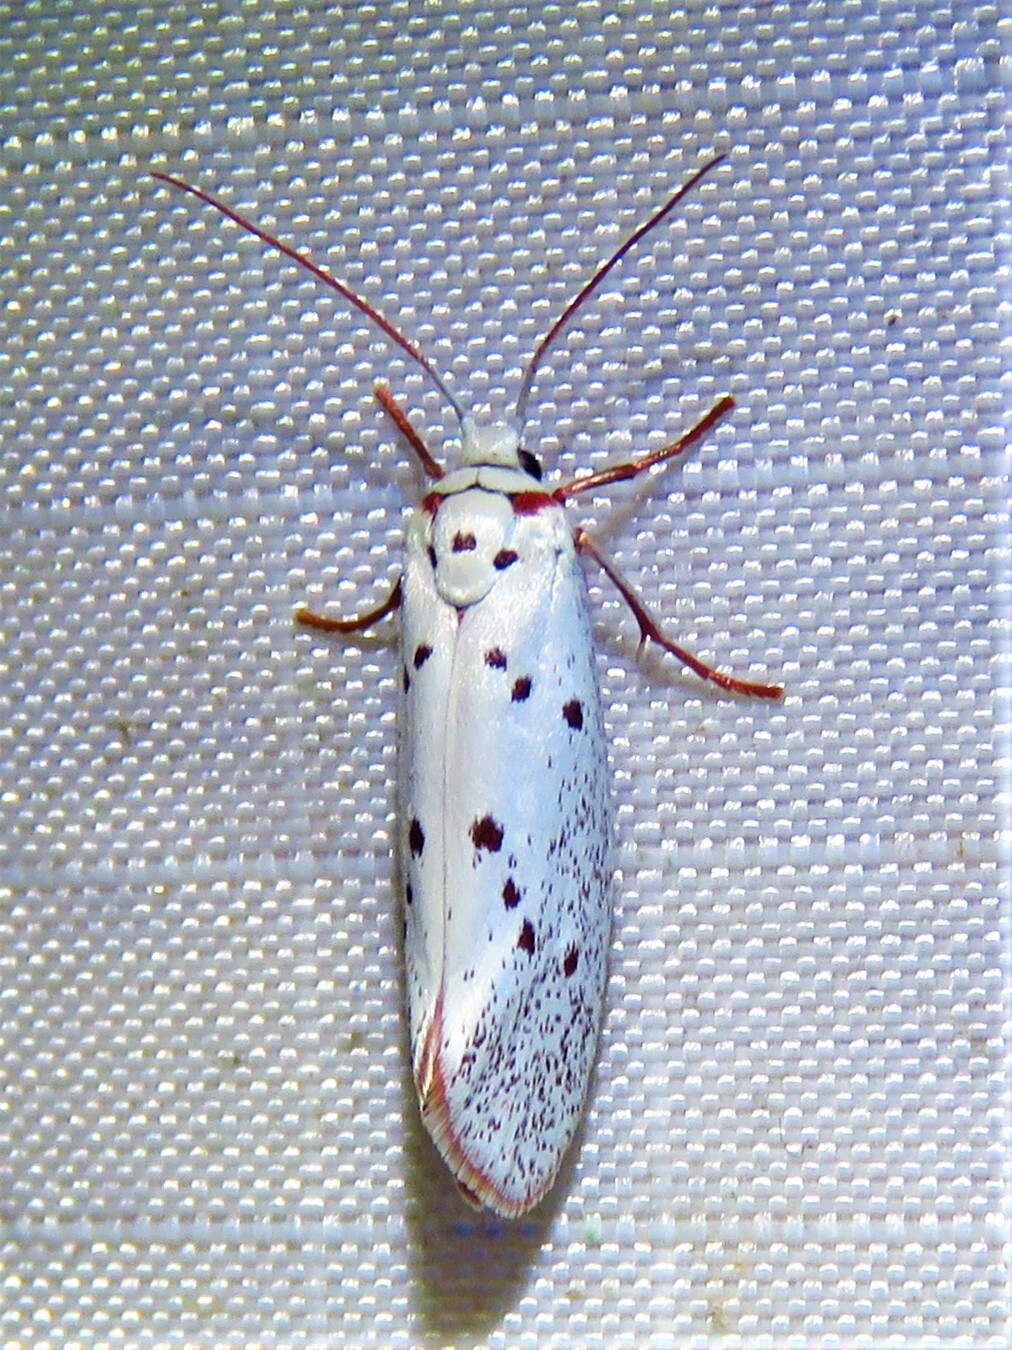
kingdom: Animalia
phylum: Arthropoda
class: Insecta
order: Lepidoptera
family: Lacturidae
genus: Lactura
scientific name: Lactura
